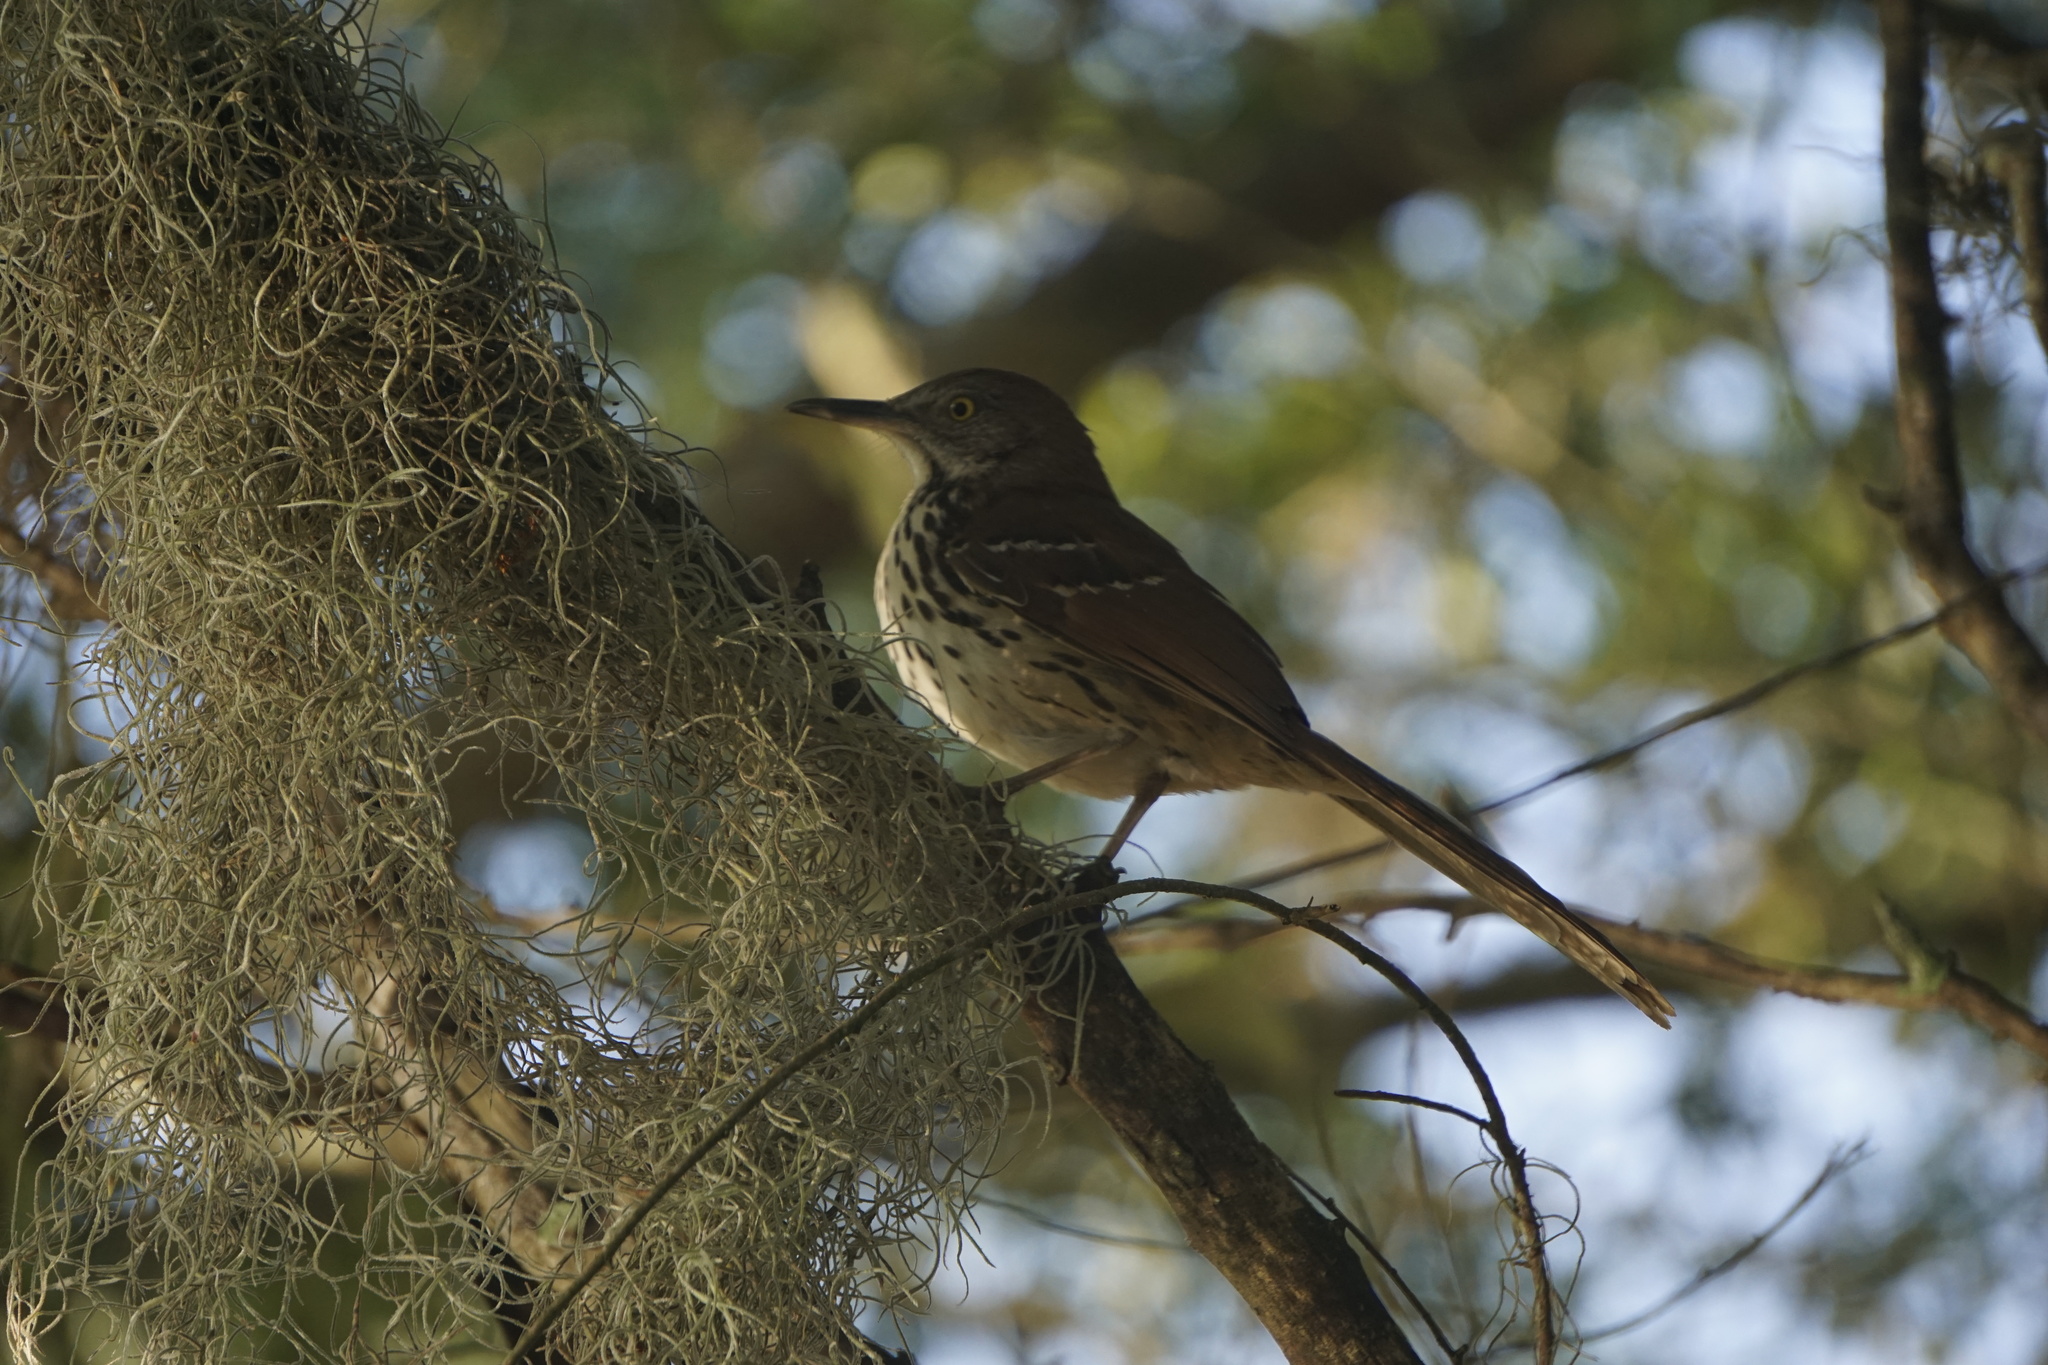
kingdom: Animalia
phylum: Chordata
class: Aves
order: Passeriformes
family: Mimidae
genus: Toxostoma
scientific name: Toxostoma rufum
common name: Brown thrasher
